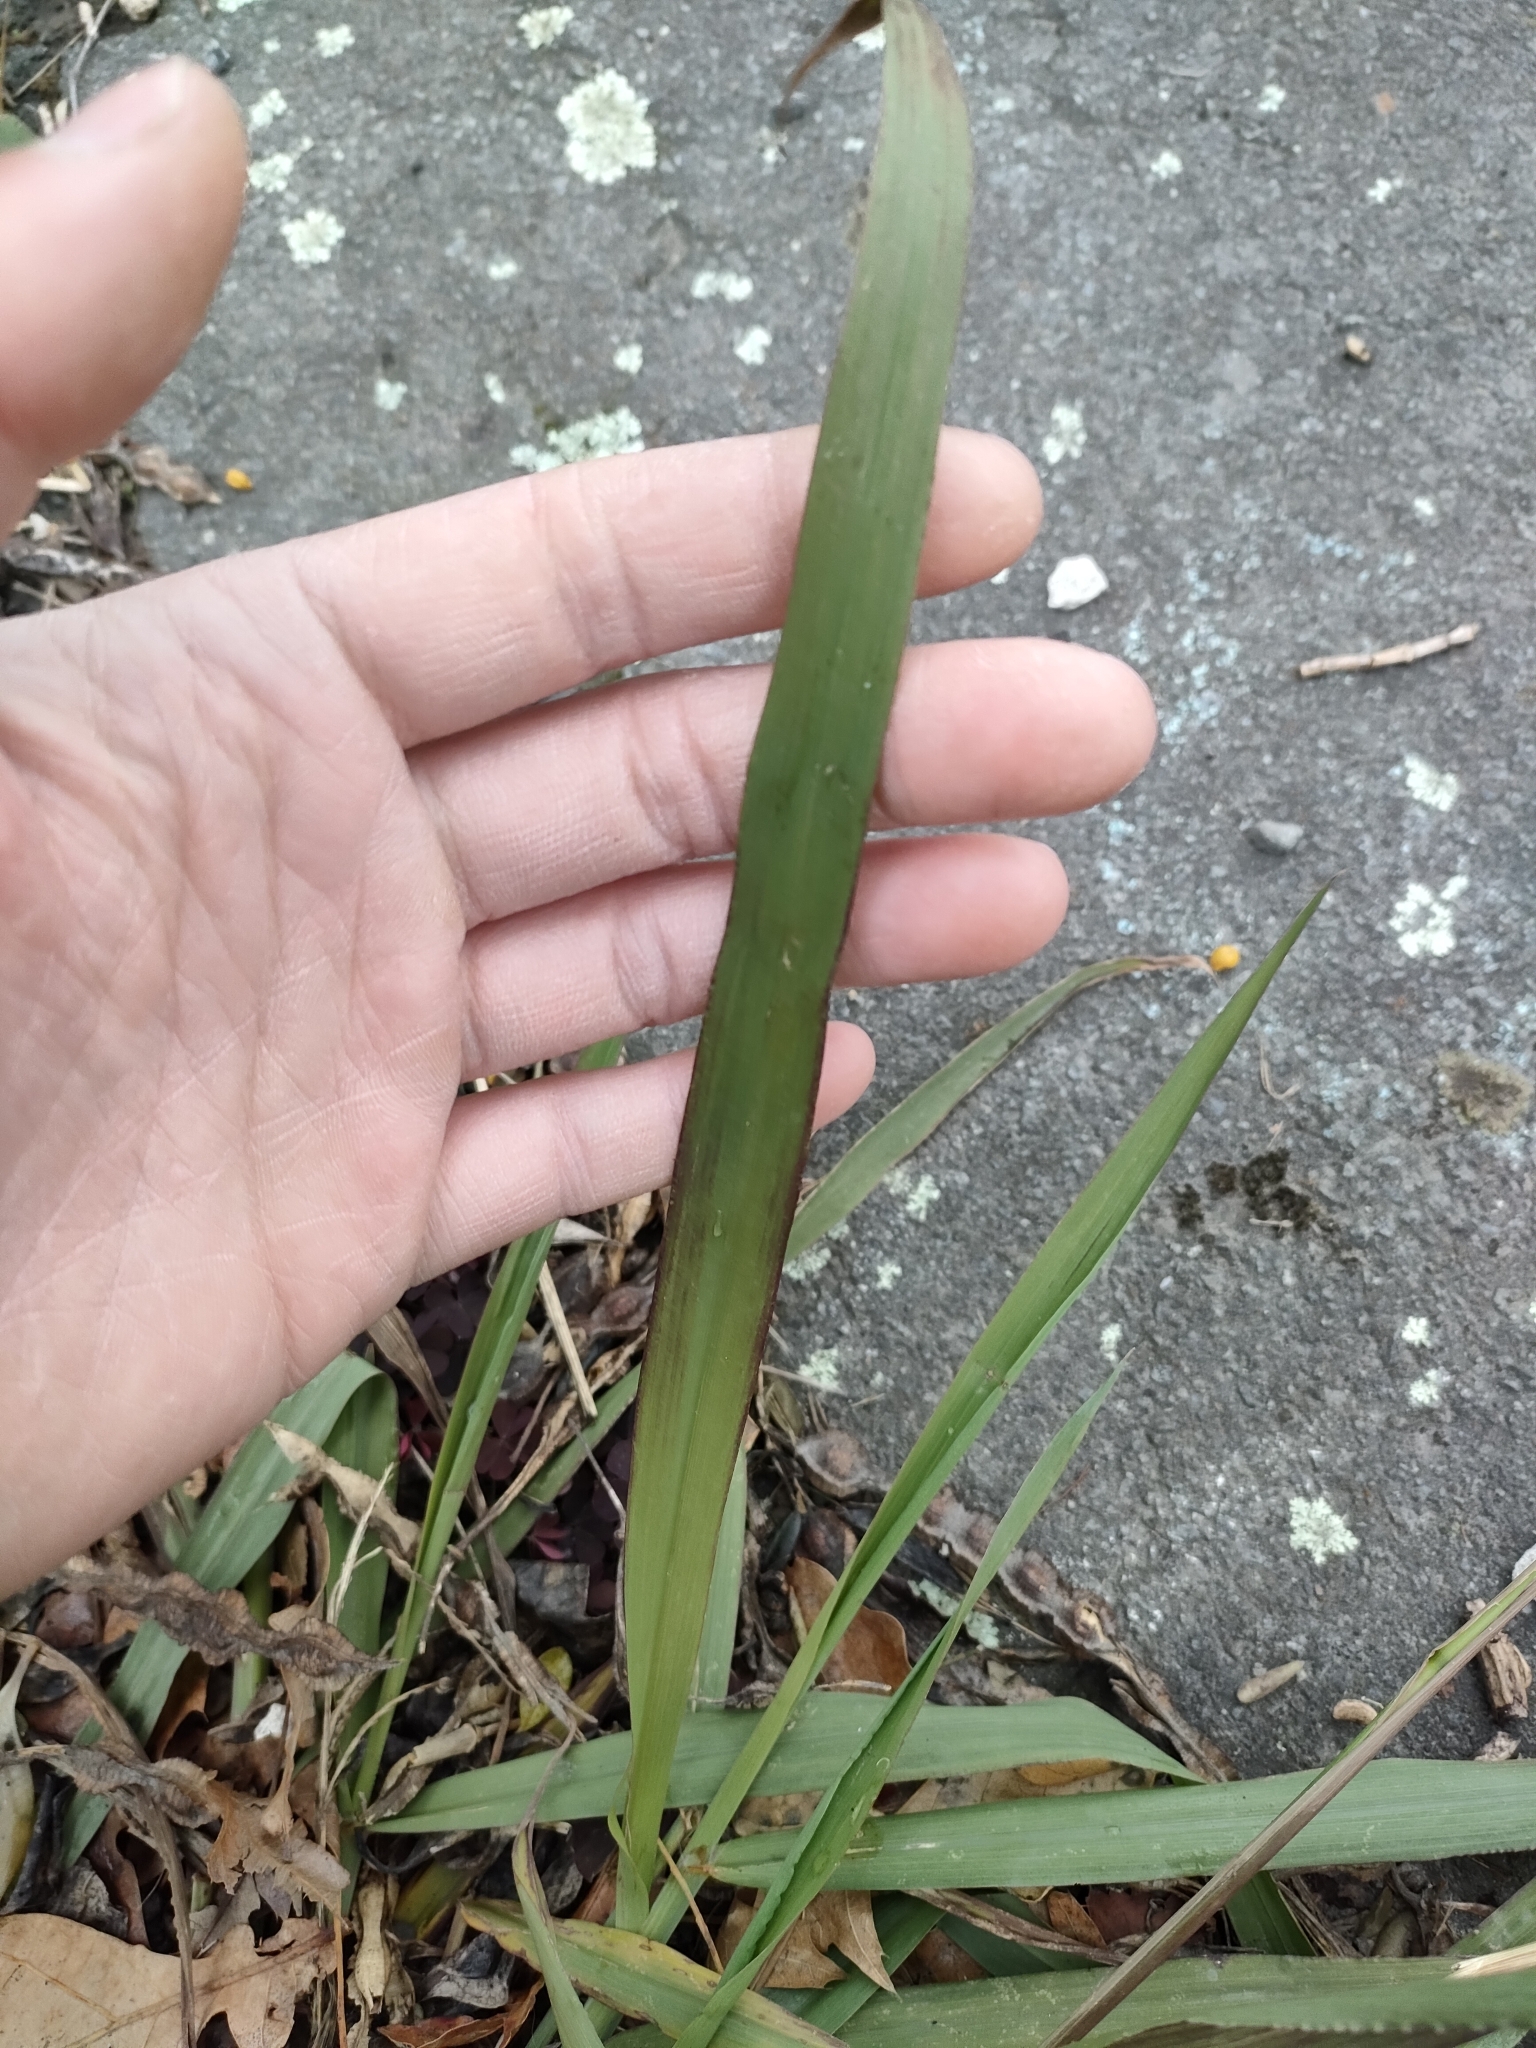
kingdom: Plantae
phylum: Tracheophyta
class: Liliopsida
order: Poales
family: Poaceae
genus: Paspalum
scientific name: Paspalum dilatatum
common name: Dallisgrass
